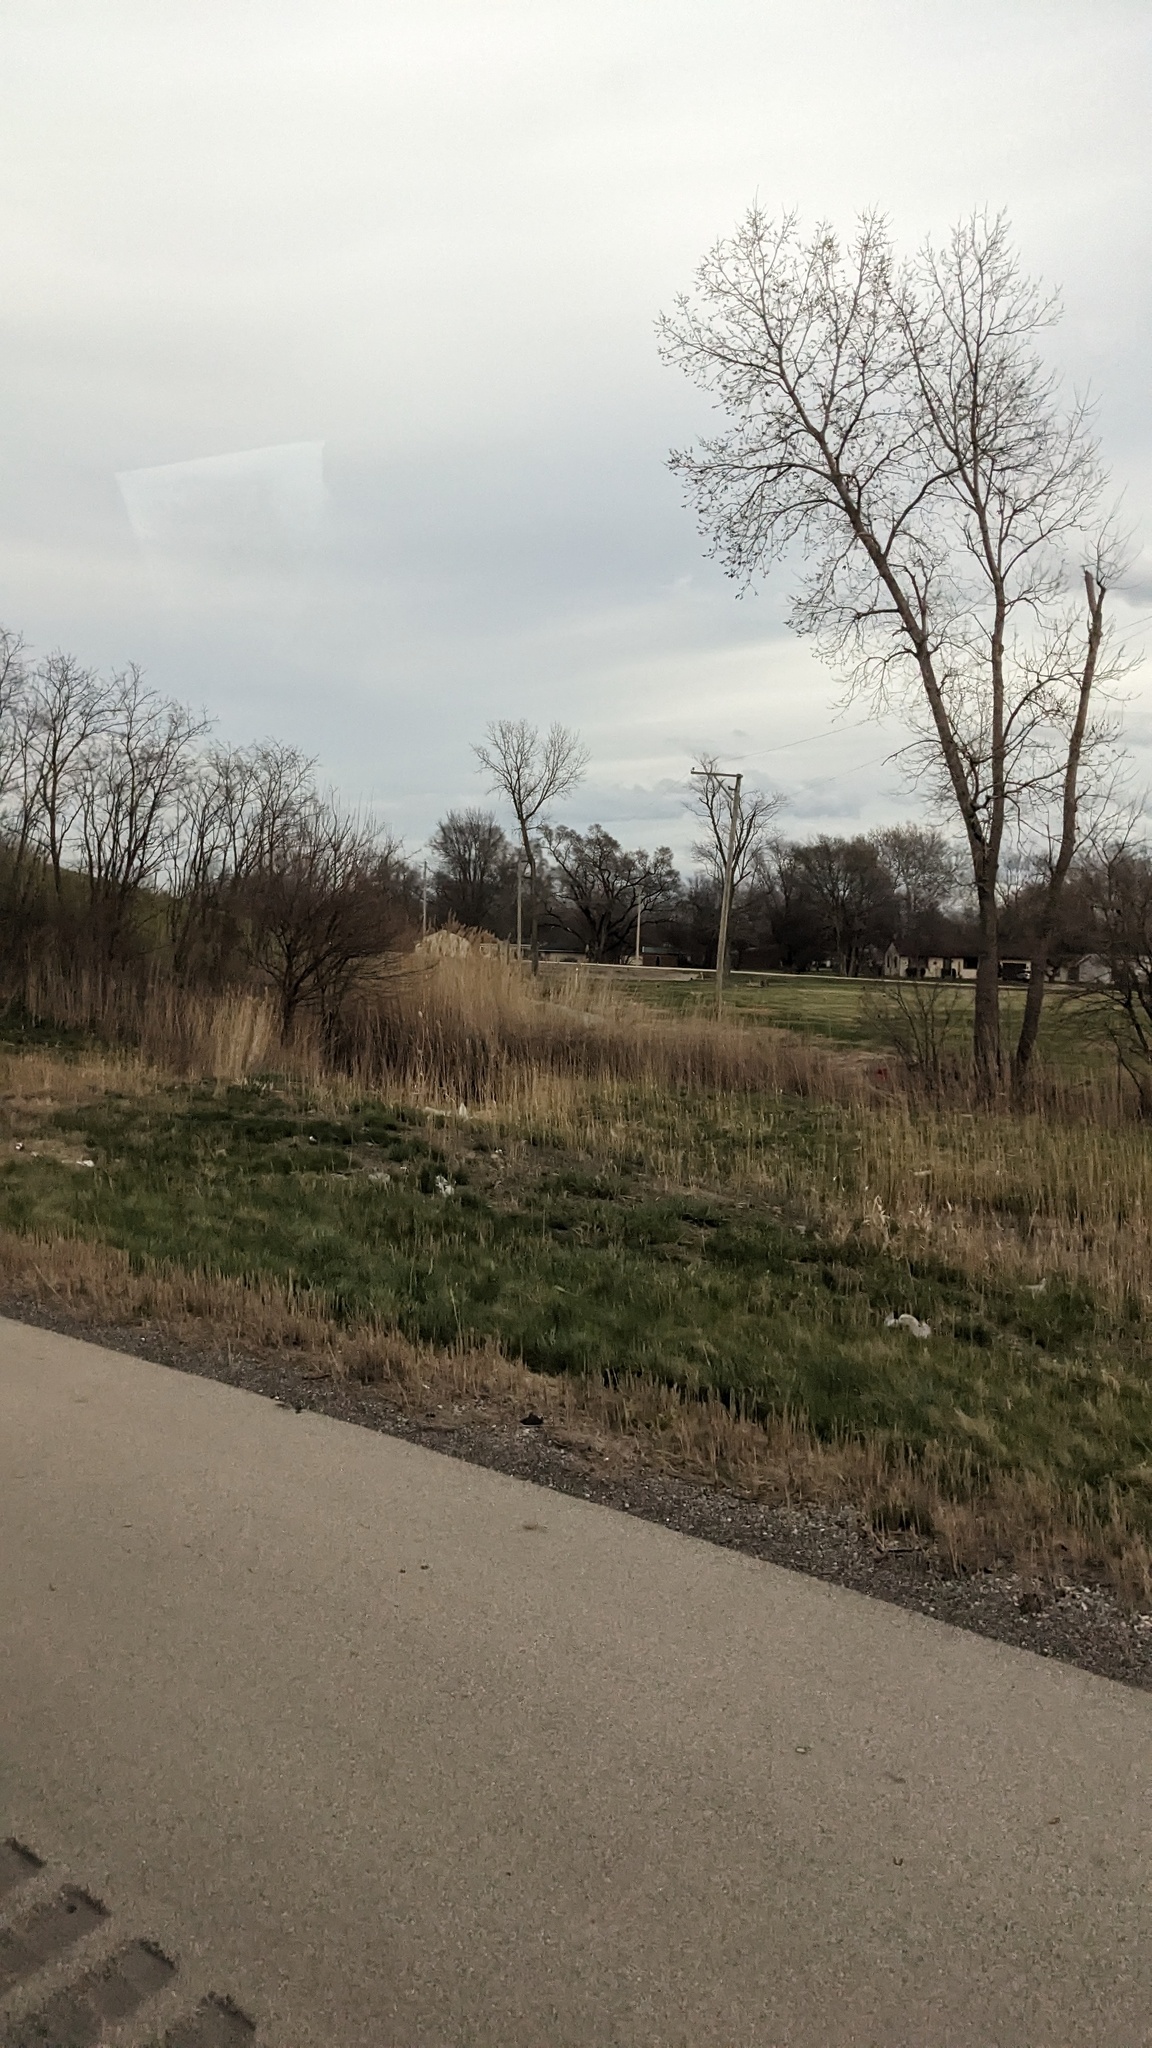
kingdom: Plantae
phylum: Tracheophyta
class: Liliopsida
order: Poales
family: Poaceae
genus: Phragmites
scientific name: Phragmites australis
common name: Common reed
